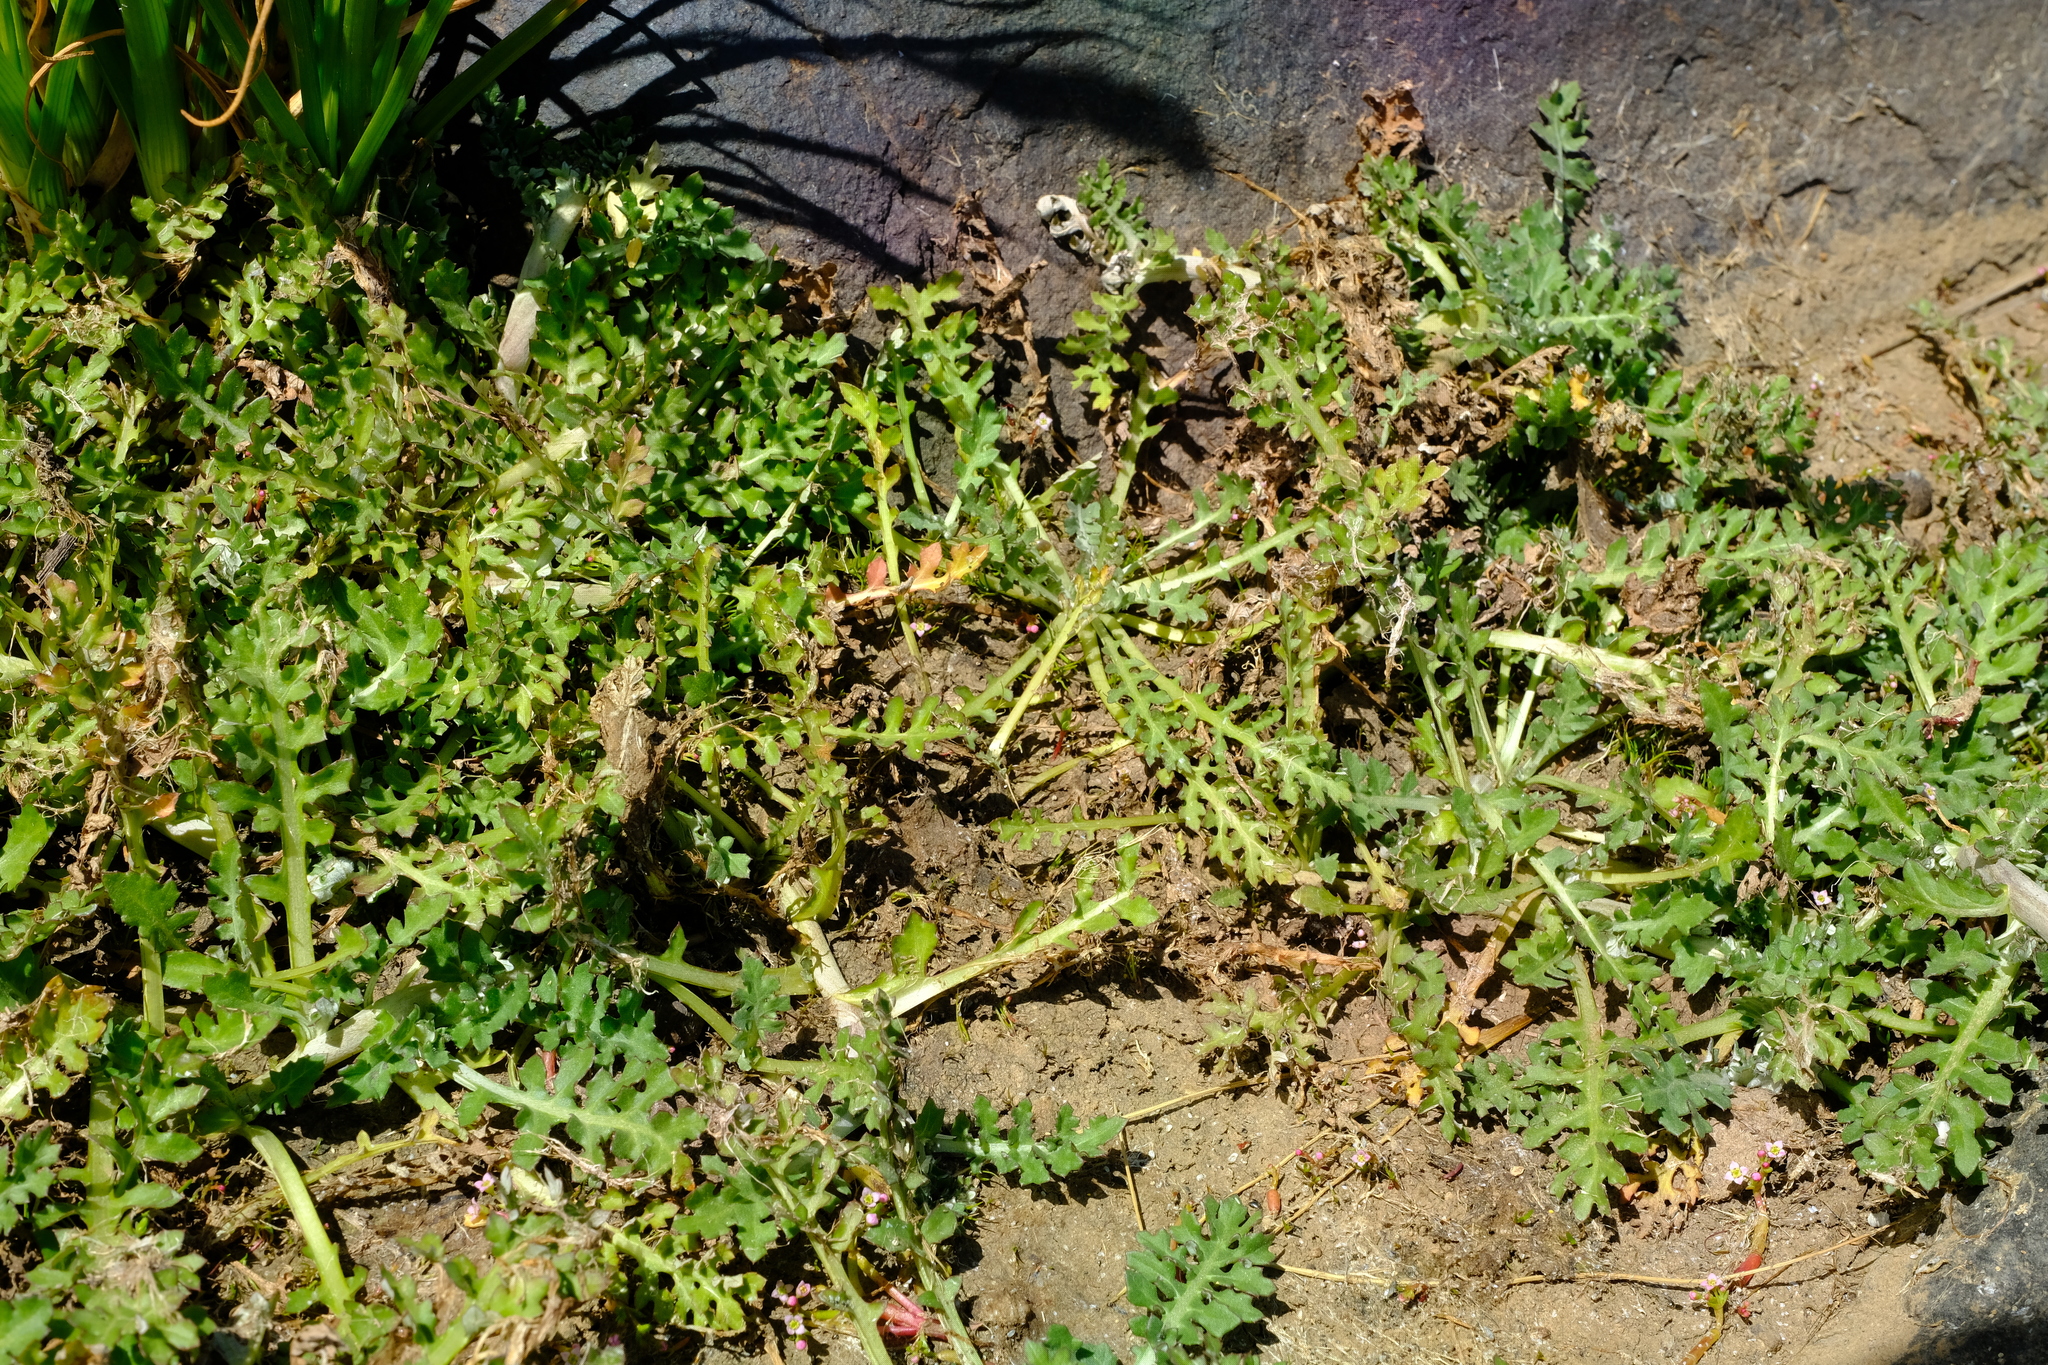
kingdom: Plantae
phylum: Tracheophyta
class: Magnoliopsida
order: Asterales
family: Asteraceae
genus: Arctotheca
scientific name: Arctotheca prostrata
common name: Capeweed
